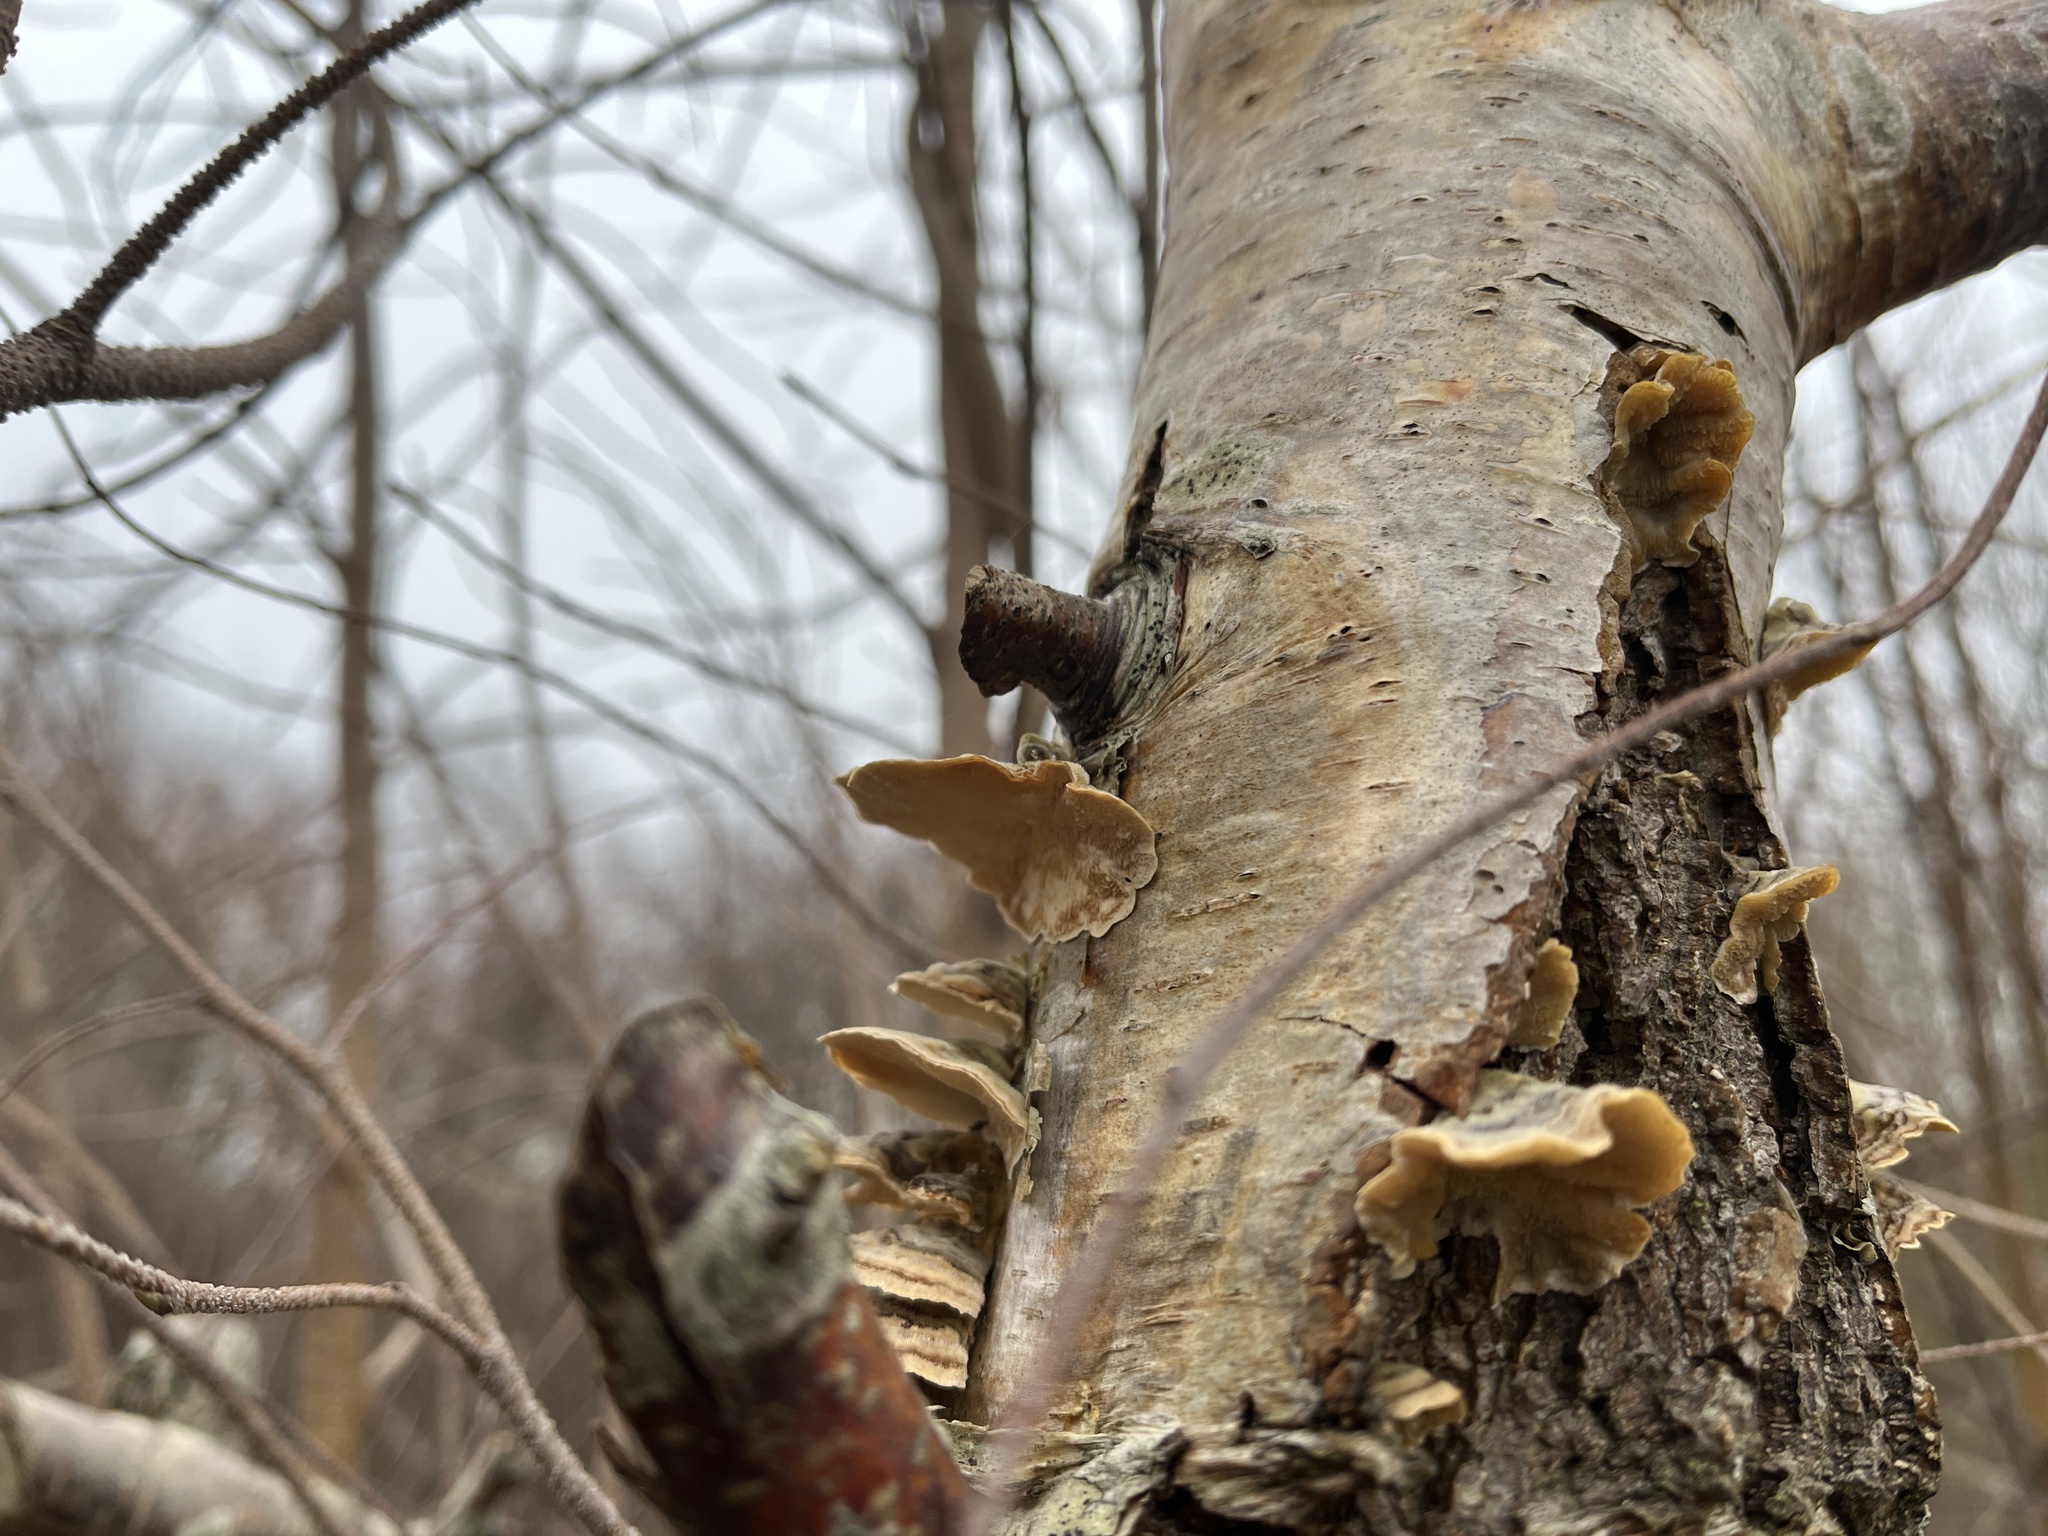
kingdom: Fungi
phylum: Basidiomycota
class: Agaricomycetes
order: Polyporales
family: Polyporaceae
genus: Trametes
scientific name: Trametes versicolor
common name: Turkeytail
